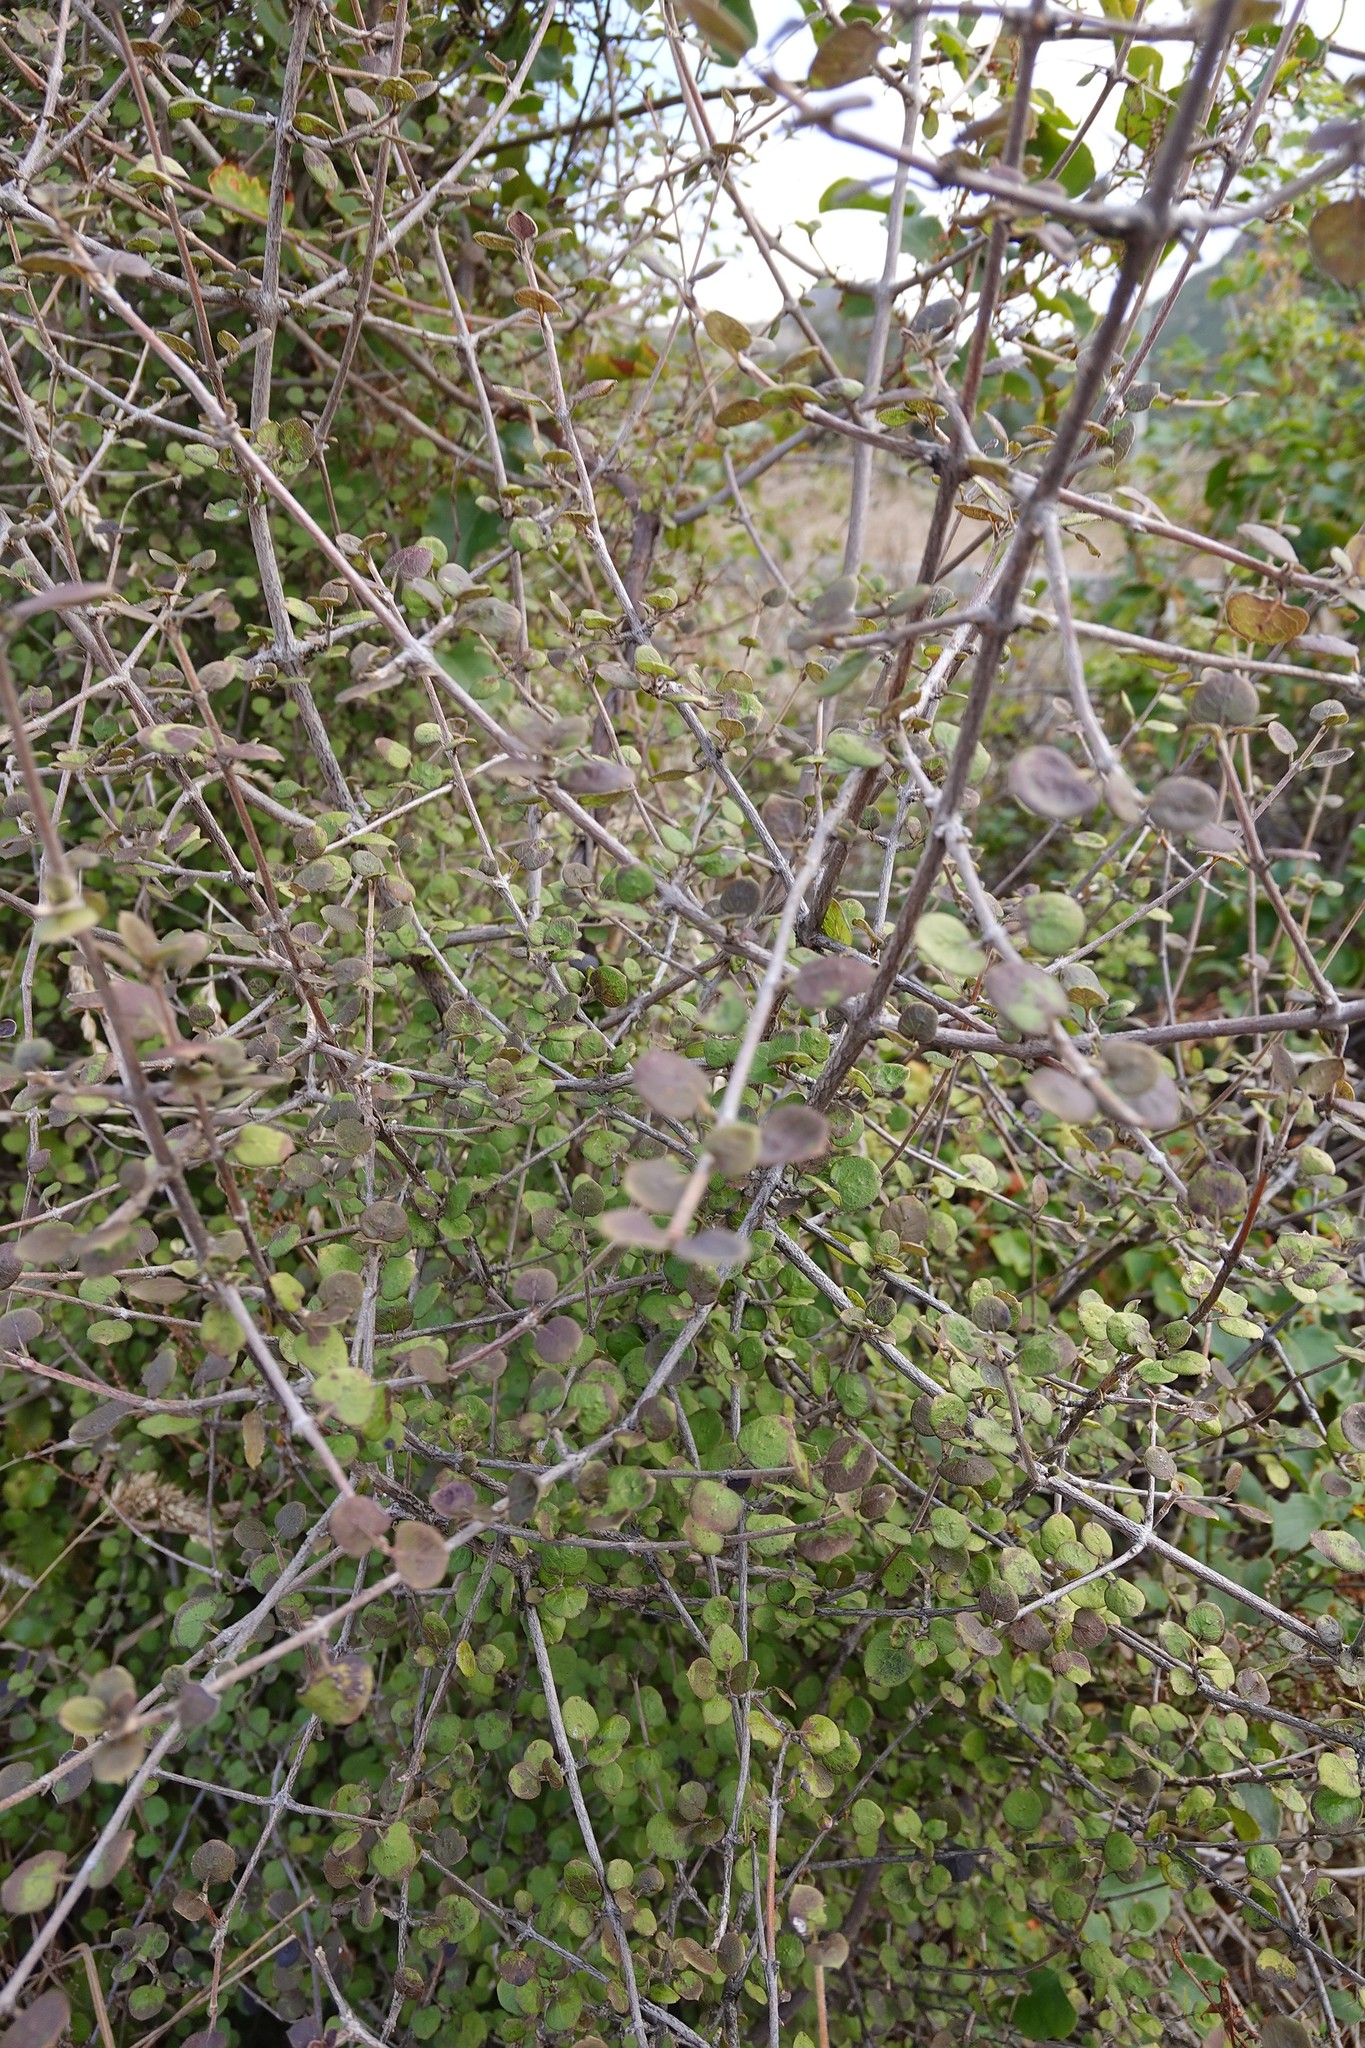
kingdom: Plantae
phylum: Tracheophyta
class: Magnoliopsida
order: Gentianales
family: Rubiaceae
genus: Coprosma
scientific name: Coprosma rotundifolia
